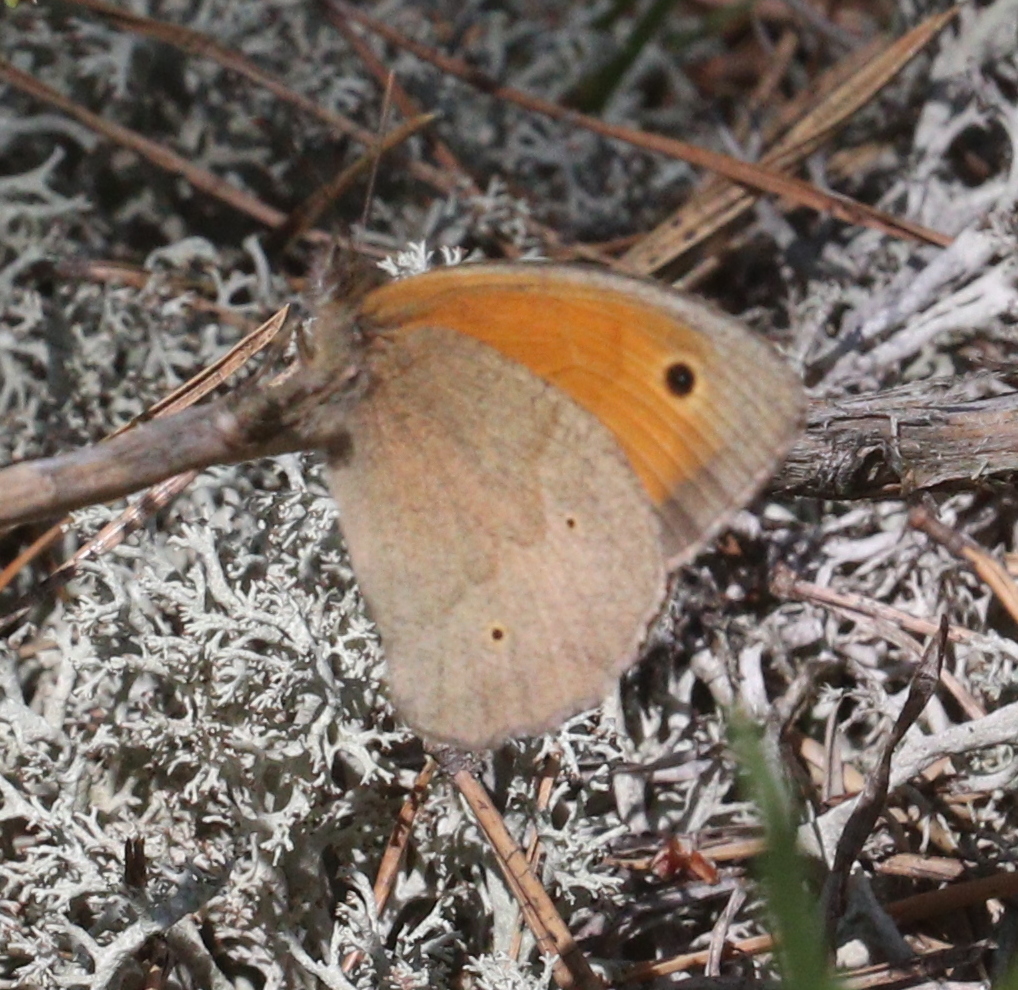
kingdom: Animalia
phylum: Arthropoda
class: Insecta
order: Lepidoptera
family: Nymphalidae
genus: Maniola
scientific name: Maniola jurtina
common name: Meadow brown
